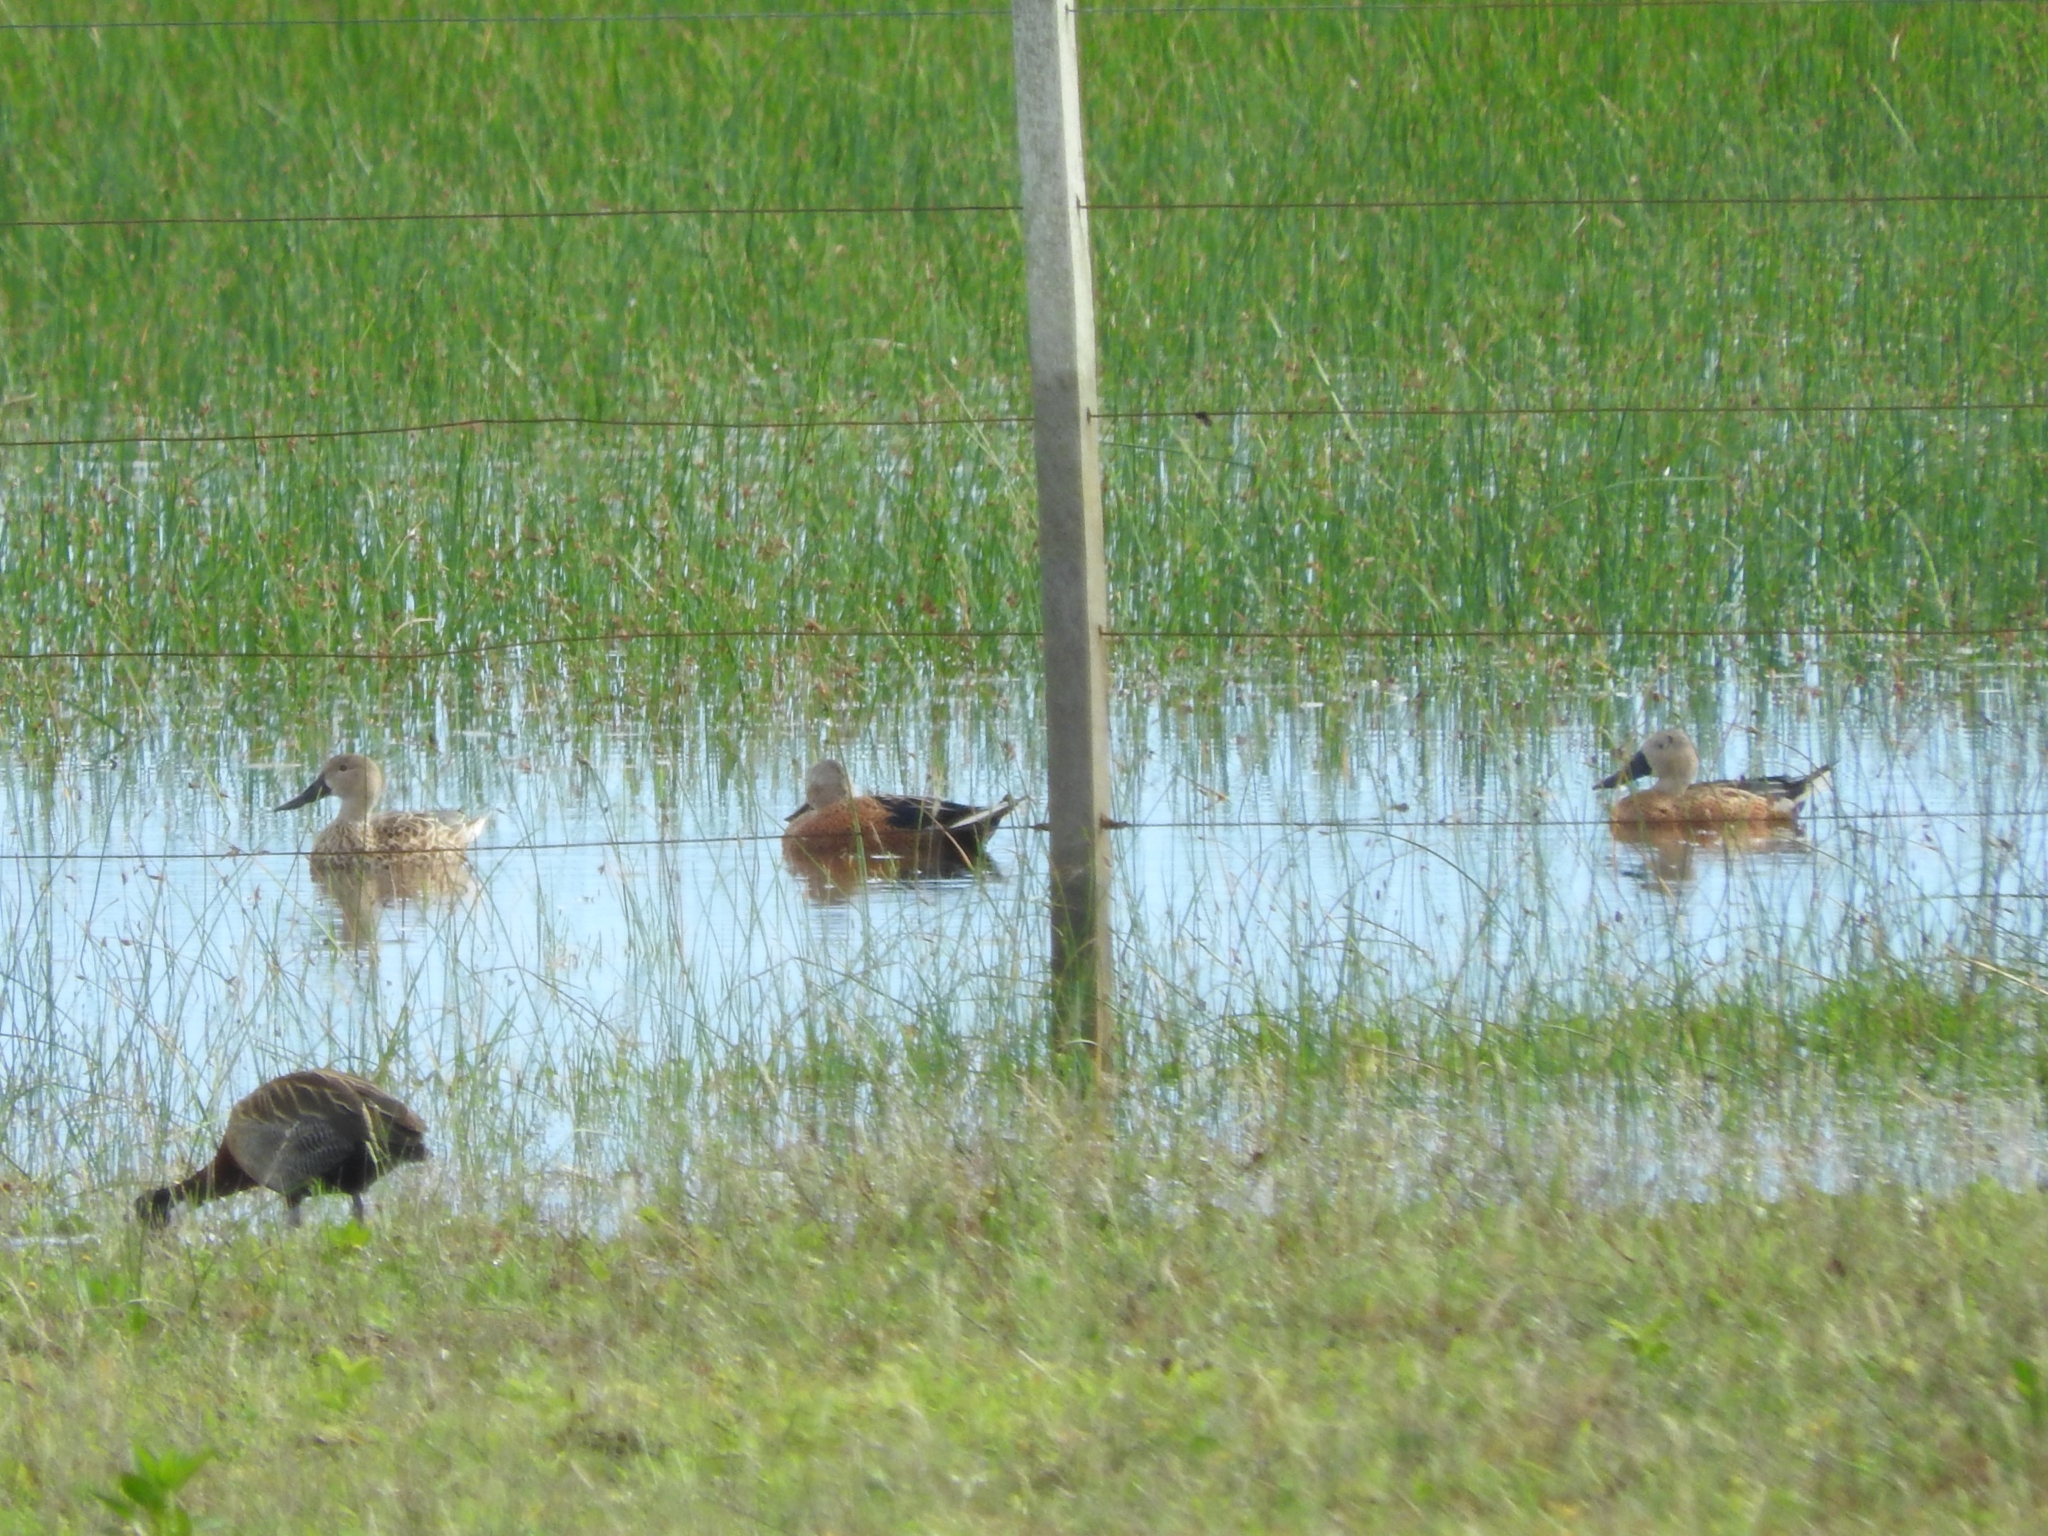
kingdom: Animalia
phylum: Chordata
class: Aves
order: Anseriformes
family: Anatidae
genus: Spatula
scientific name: Spatula platalea
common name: Red shoveler
